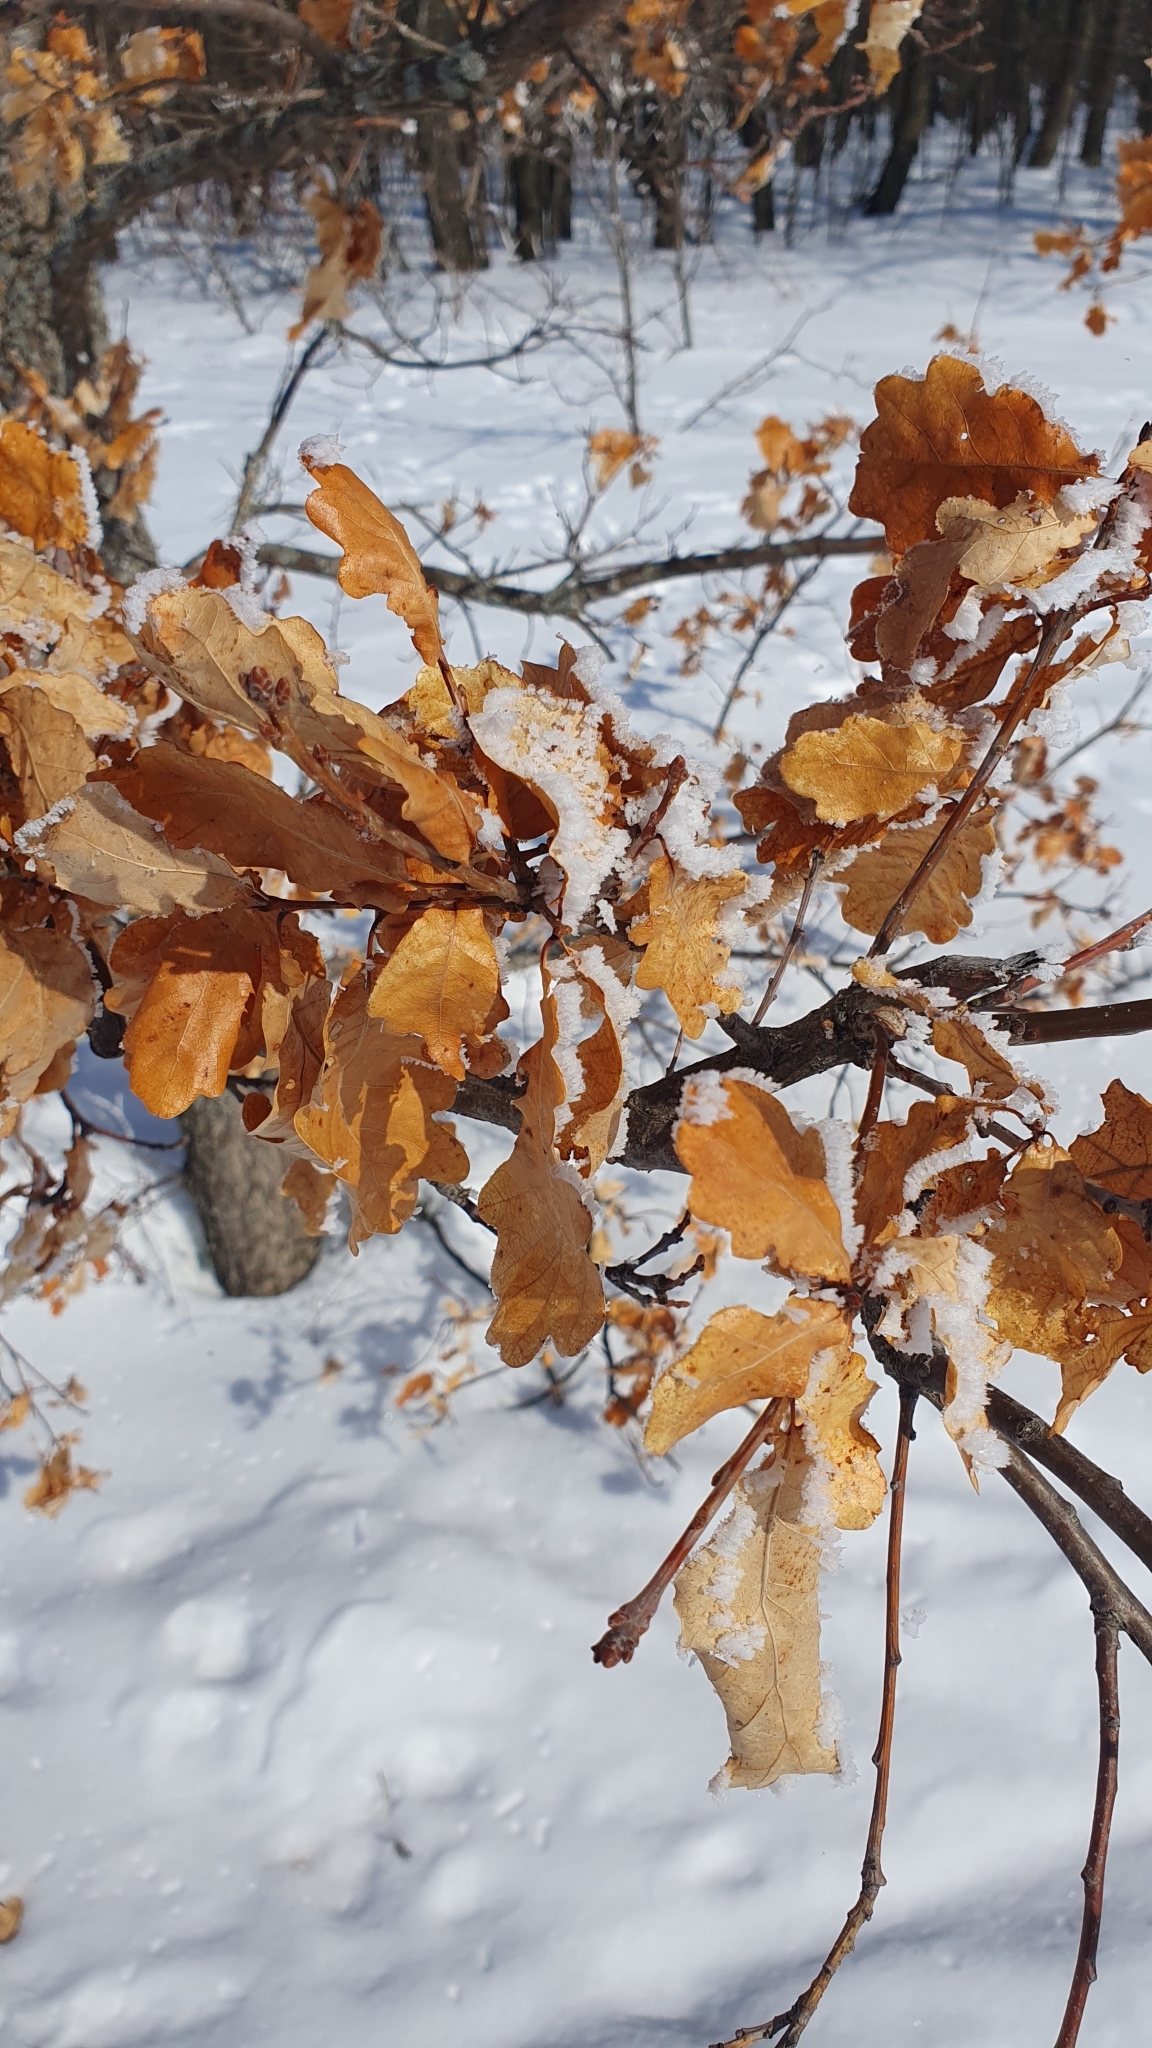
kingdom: Plantae
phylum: Tracheophyta
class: Magnoliopsida
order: Fagales
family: Fagaceae
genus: Quercus
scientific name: Quercus robur
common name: Pedunculate oak
